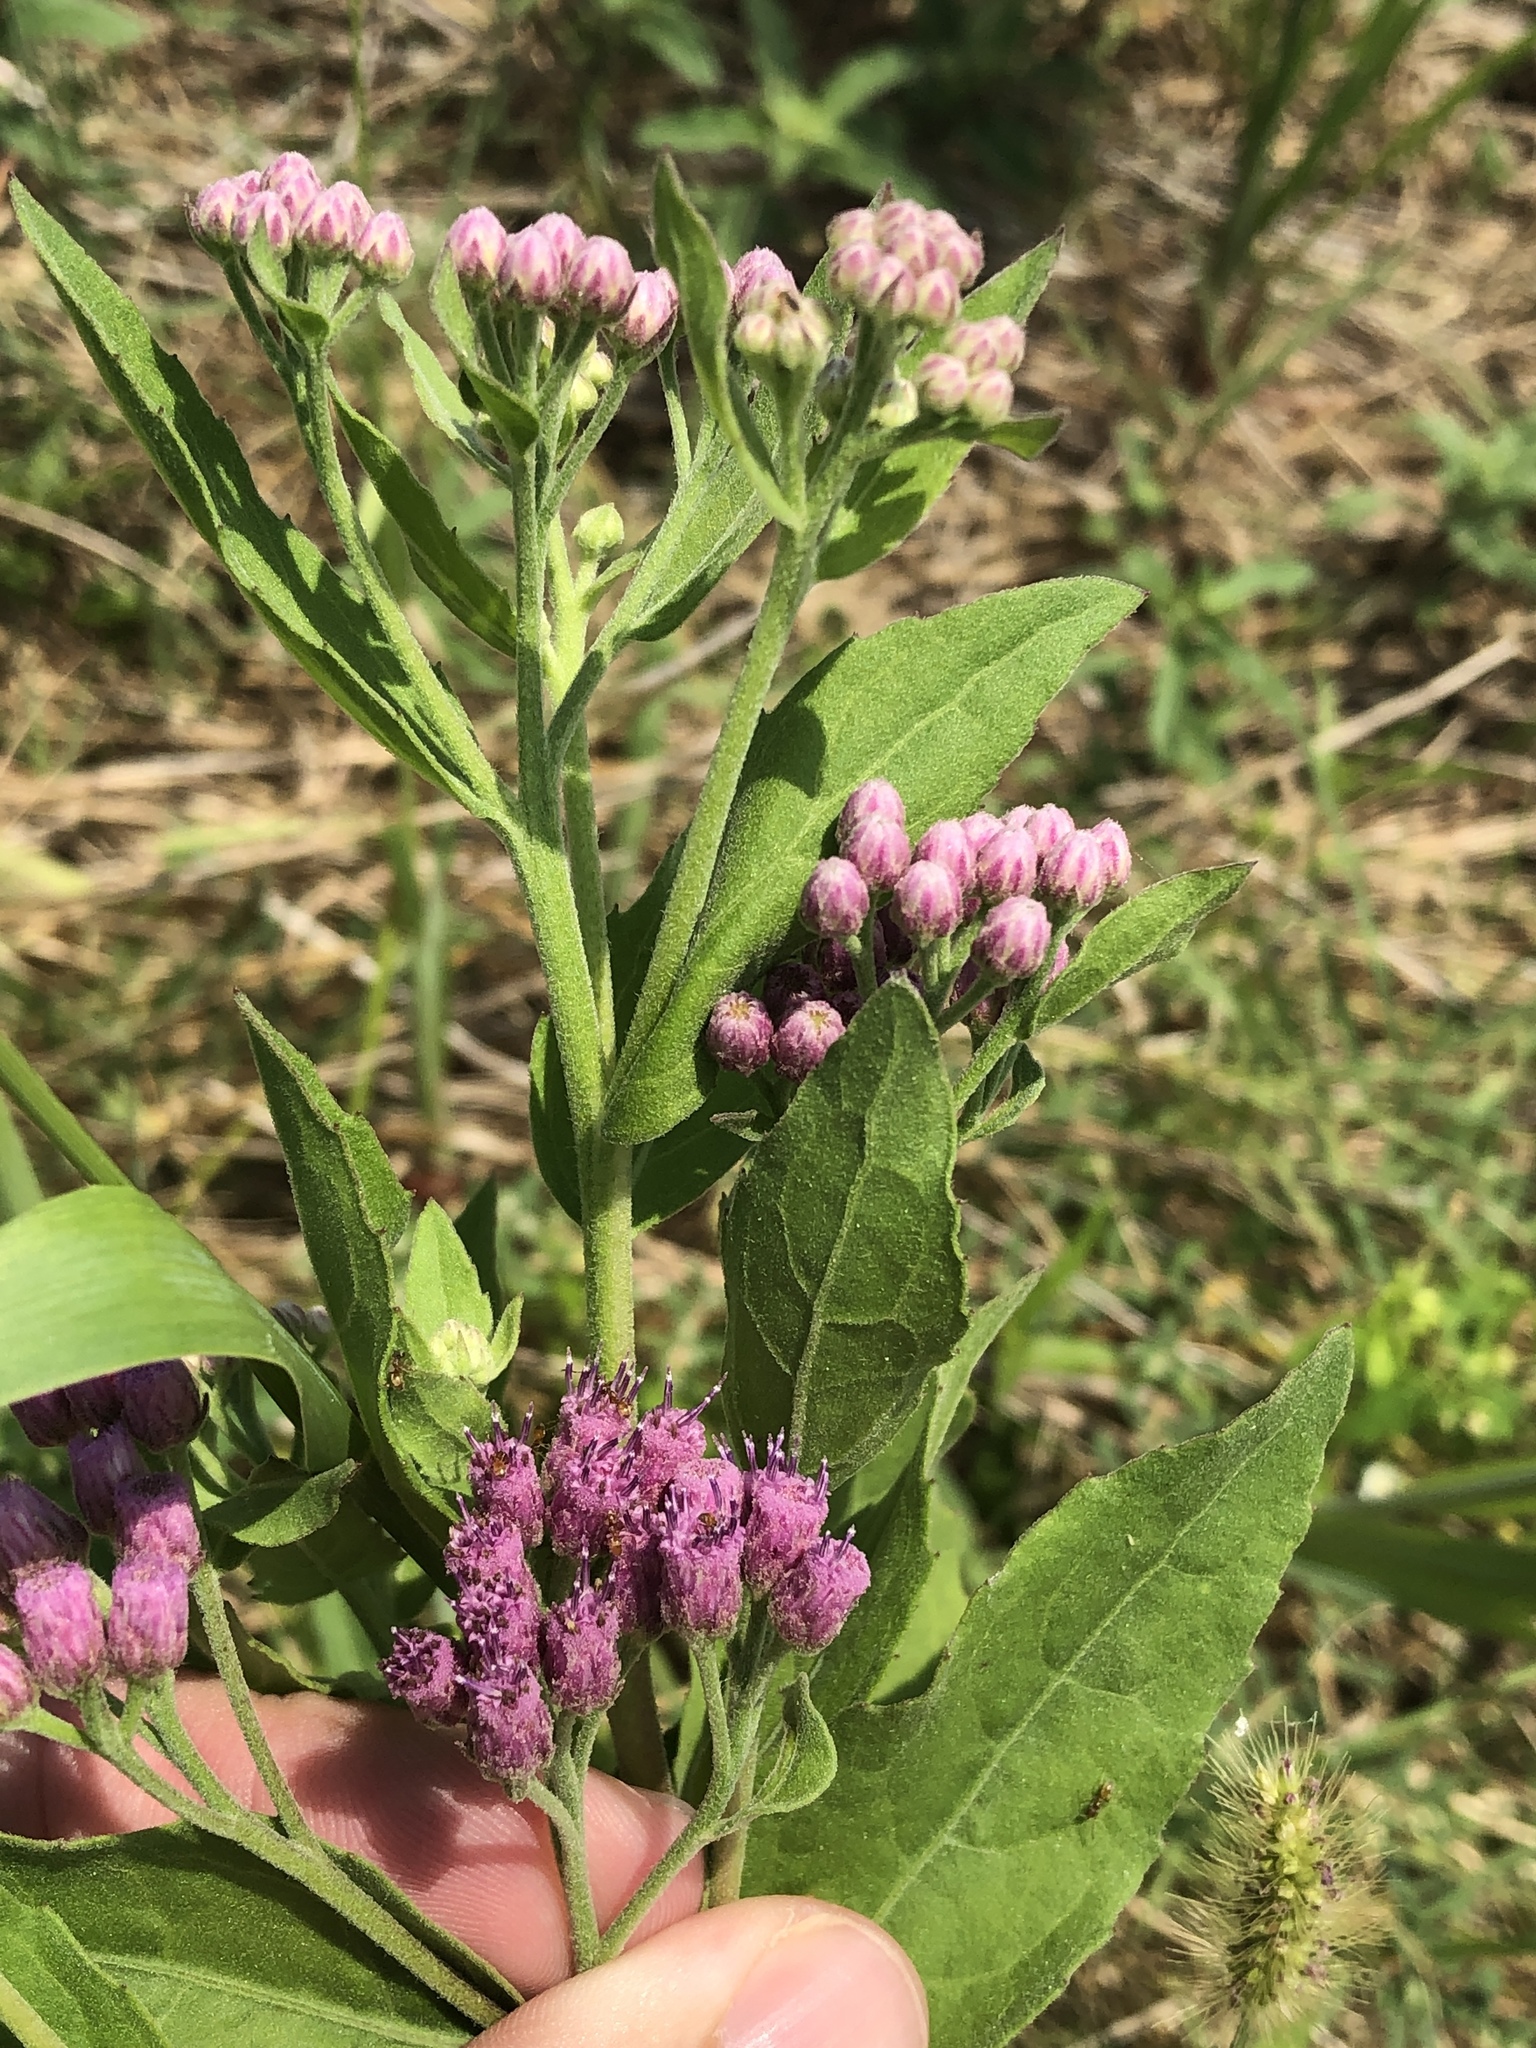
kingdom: Plantae
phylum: Tracheophyta
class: Magnoliopsida
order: Asterales
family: Asteraceae
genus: Pluchea
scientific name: Pluchea odorata
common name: Saltmarsh fleabane
